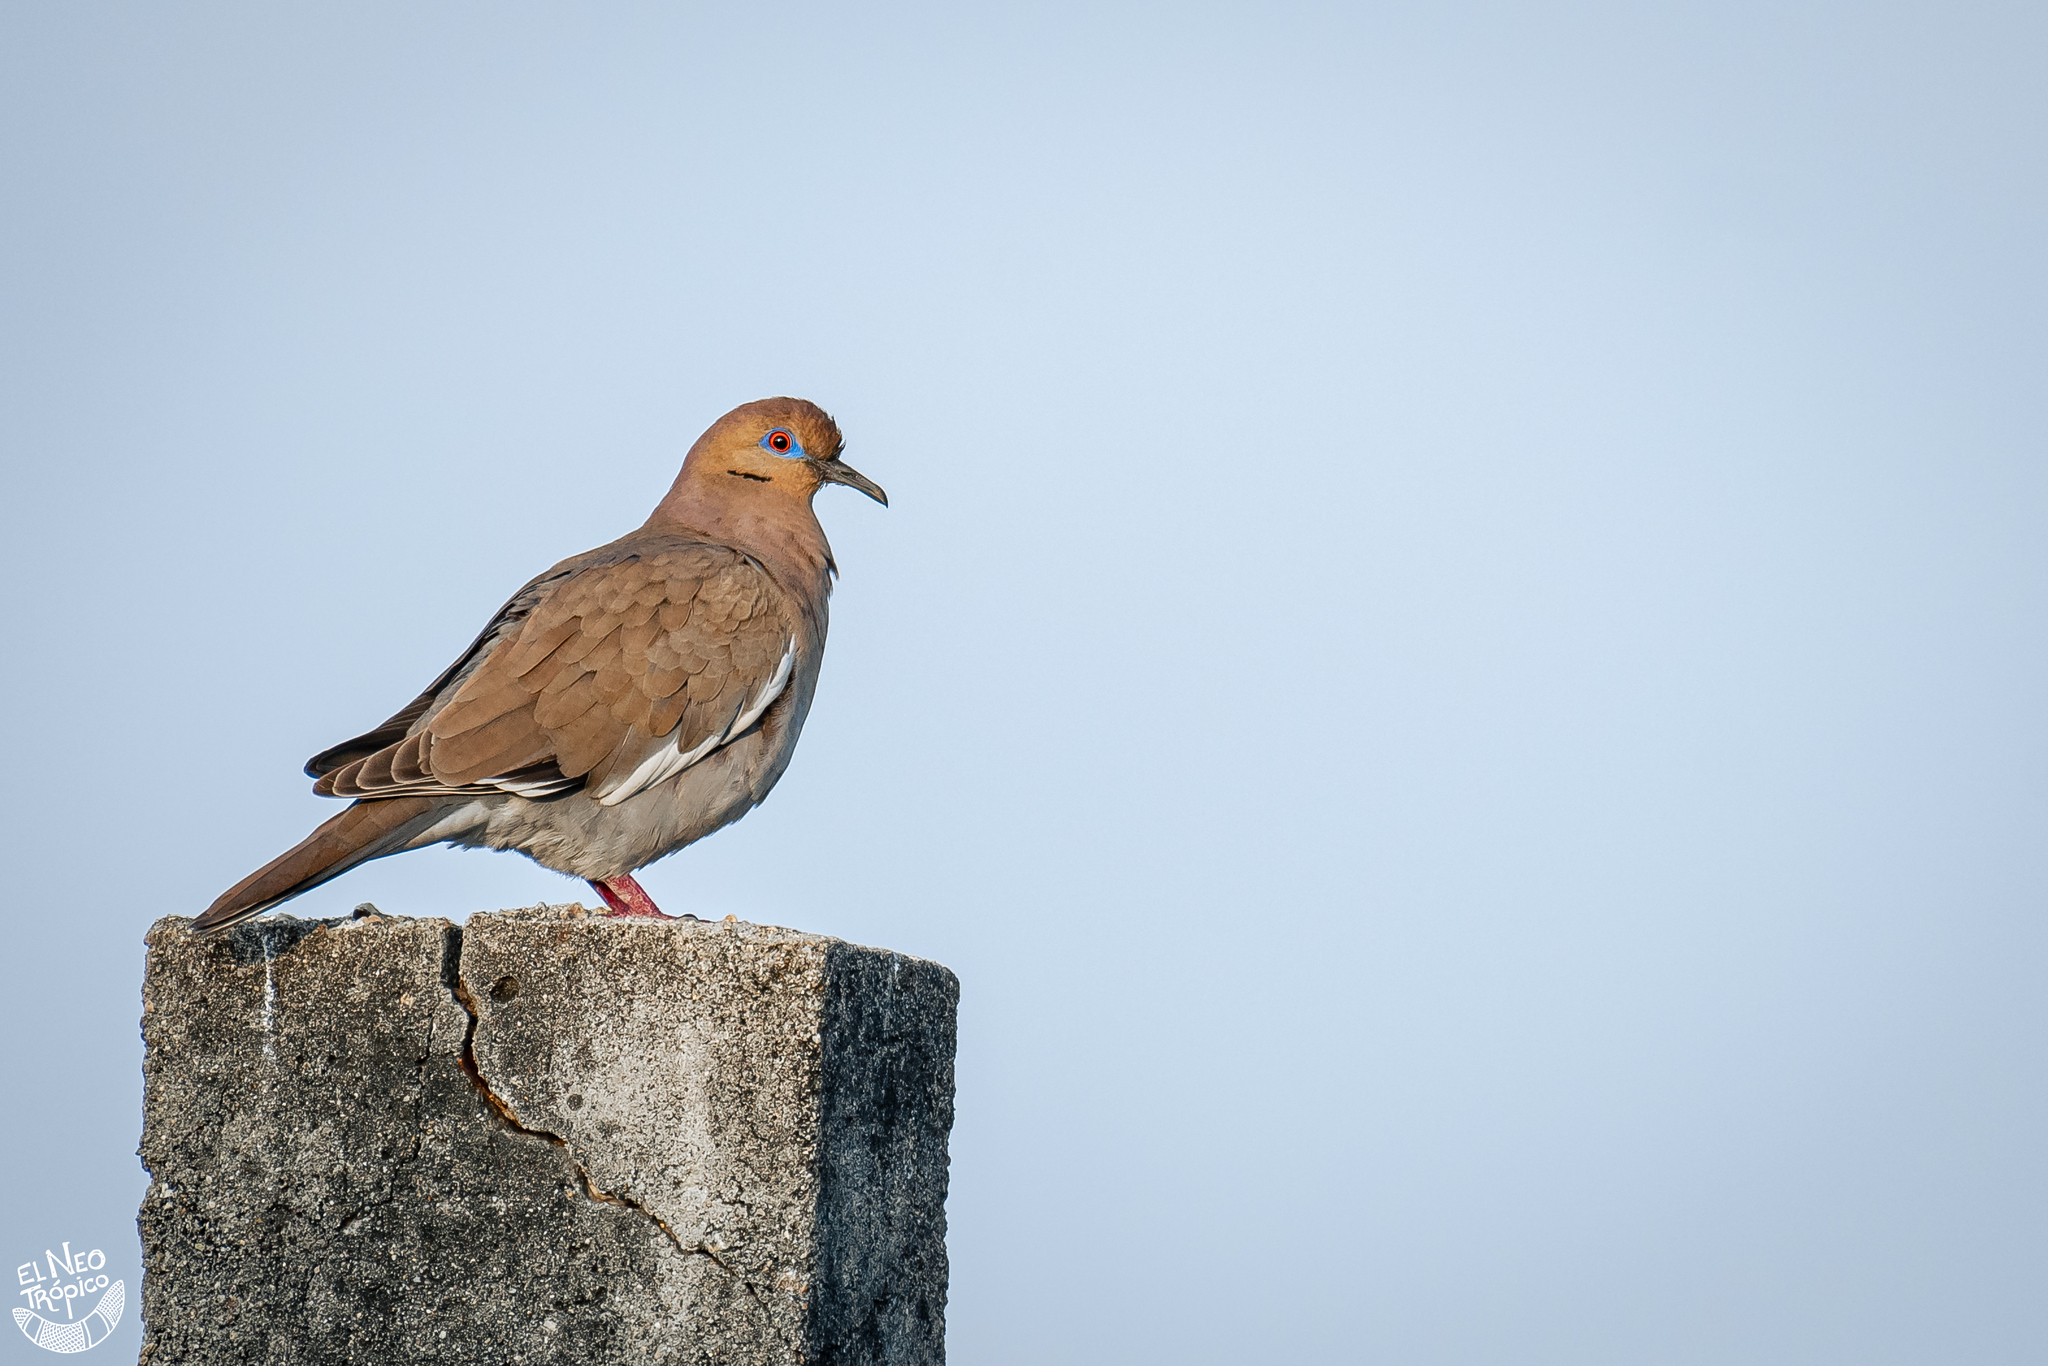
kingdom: Animalia
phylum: Chordata
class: Aves
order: Columbiformes
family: Columbidae
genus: Zenaida
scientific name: Zenaida asiatica
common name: White-winged dove
